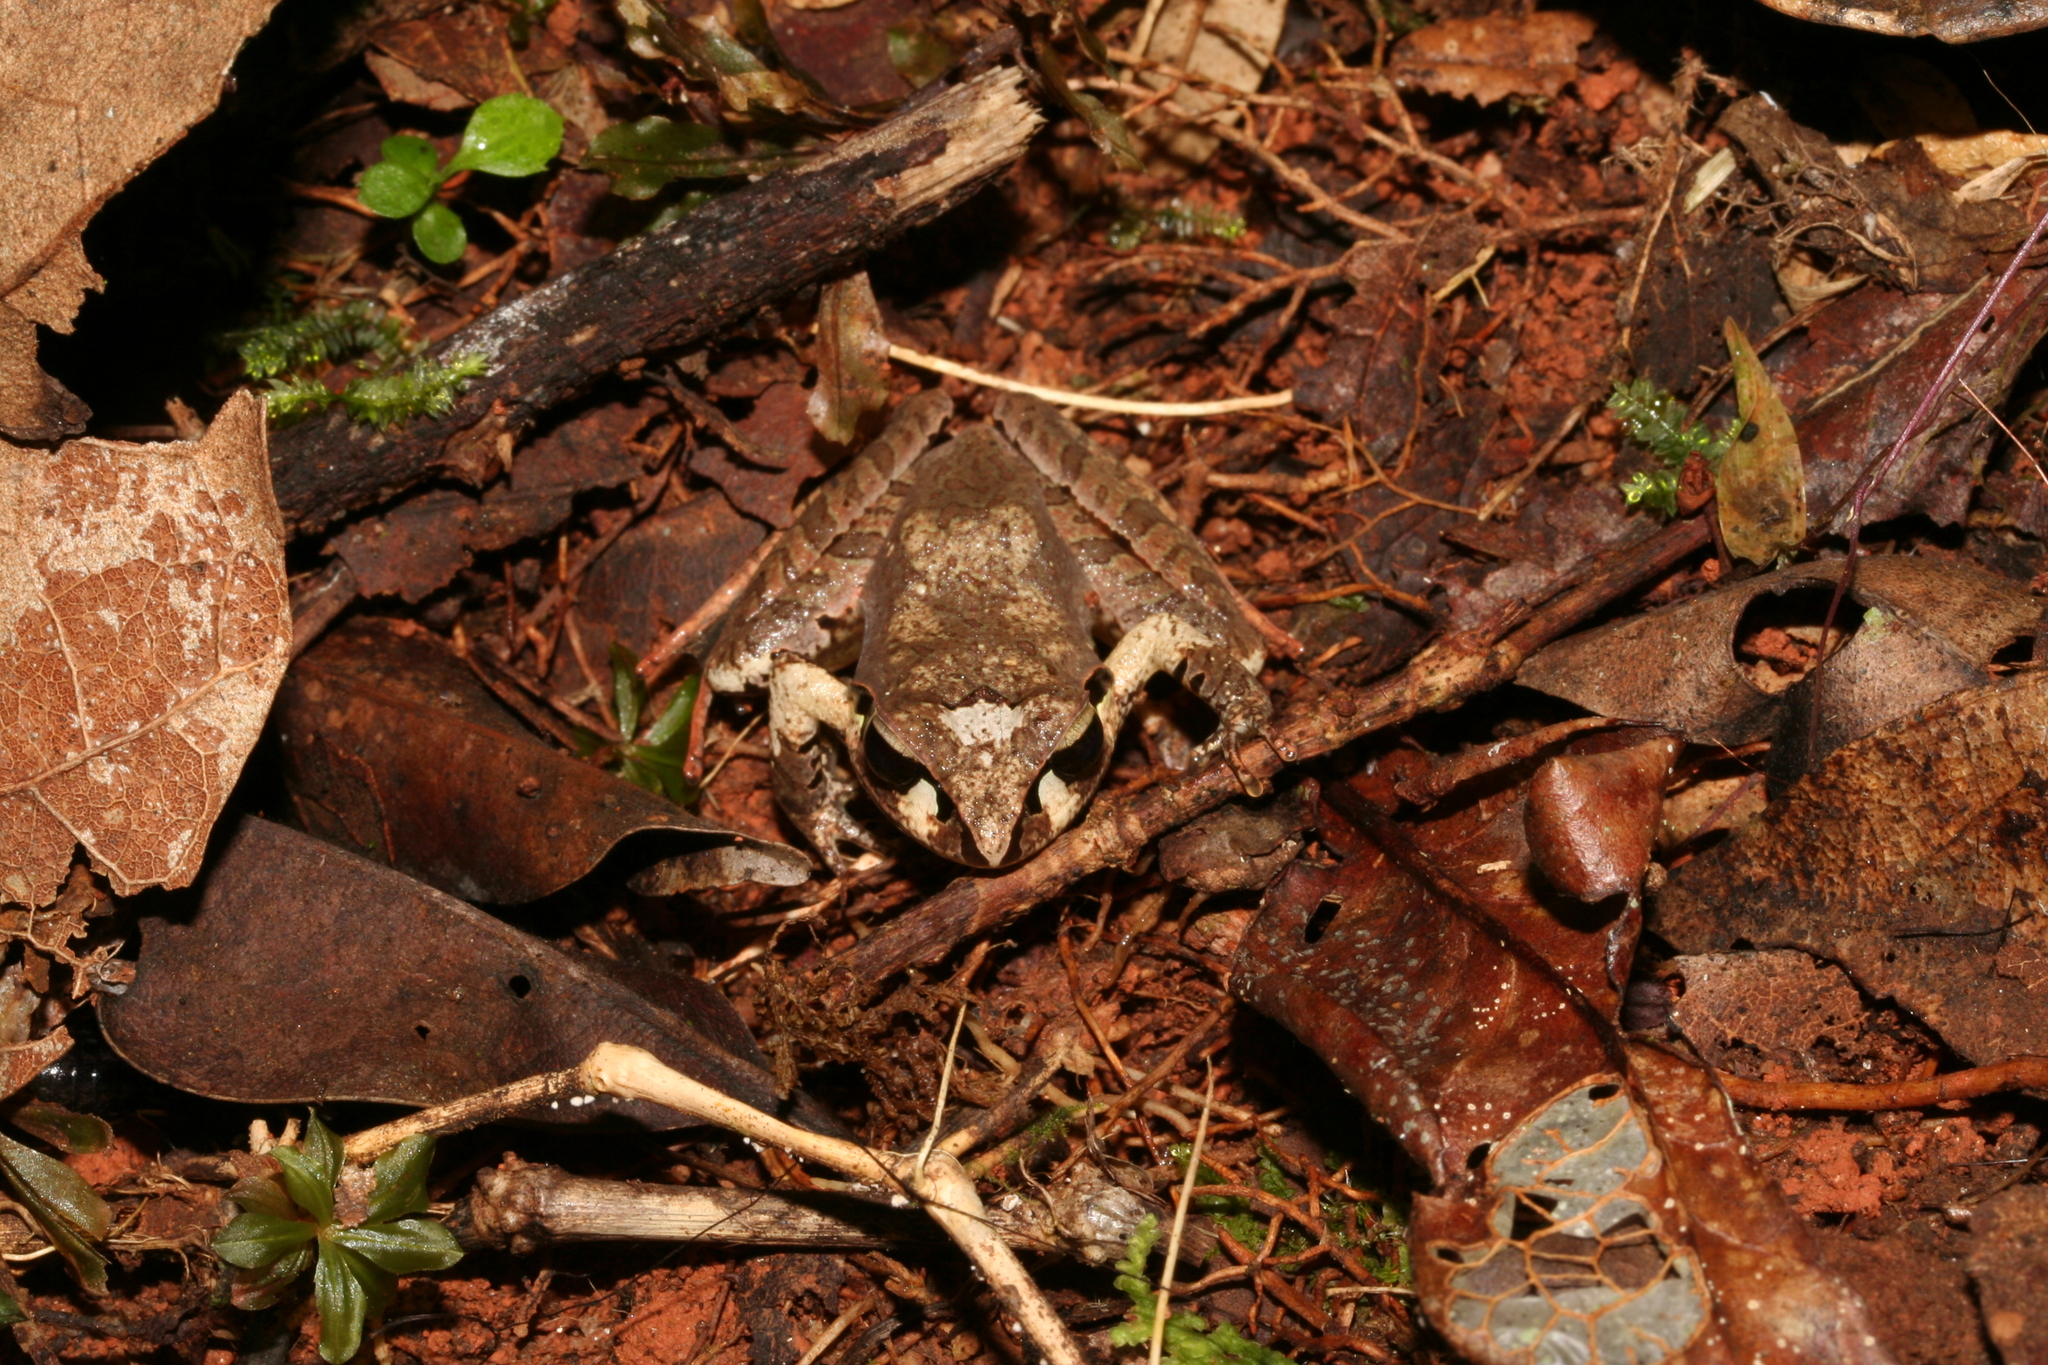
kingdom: Animalia
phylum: Chordata
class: Amphibia
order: Anura
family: Mantellidae
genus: Aglyptodactylus
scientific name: Aglyptodactylus madagascariensis
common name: Madagascar jumping frog
